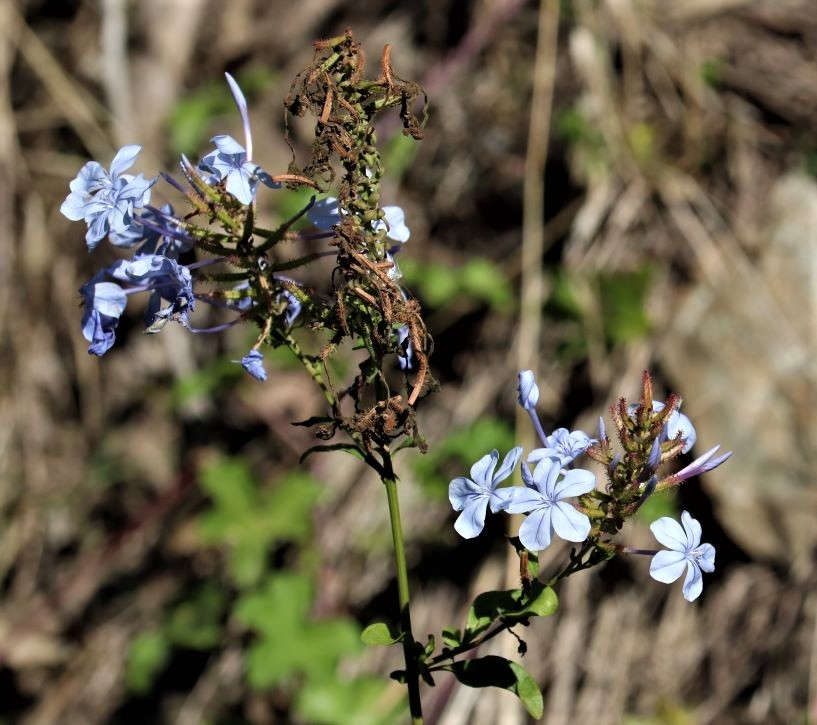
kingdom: Plantae
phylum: Tracheophyta
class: Magnoliopsida
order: Caryophyllales
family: Plumbaginaceae
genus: Plumbago
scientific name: Plumbago auriculata
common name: Cape leadwort
